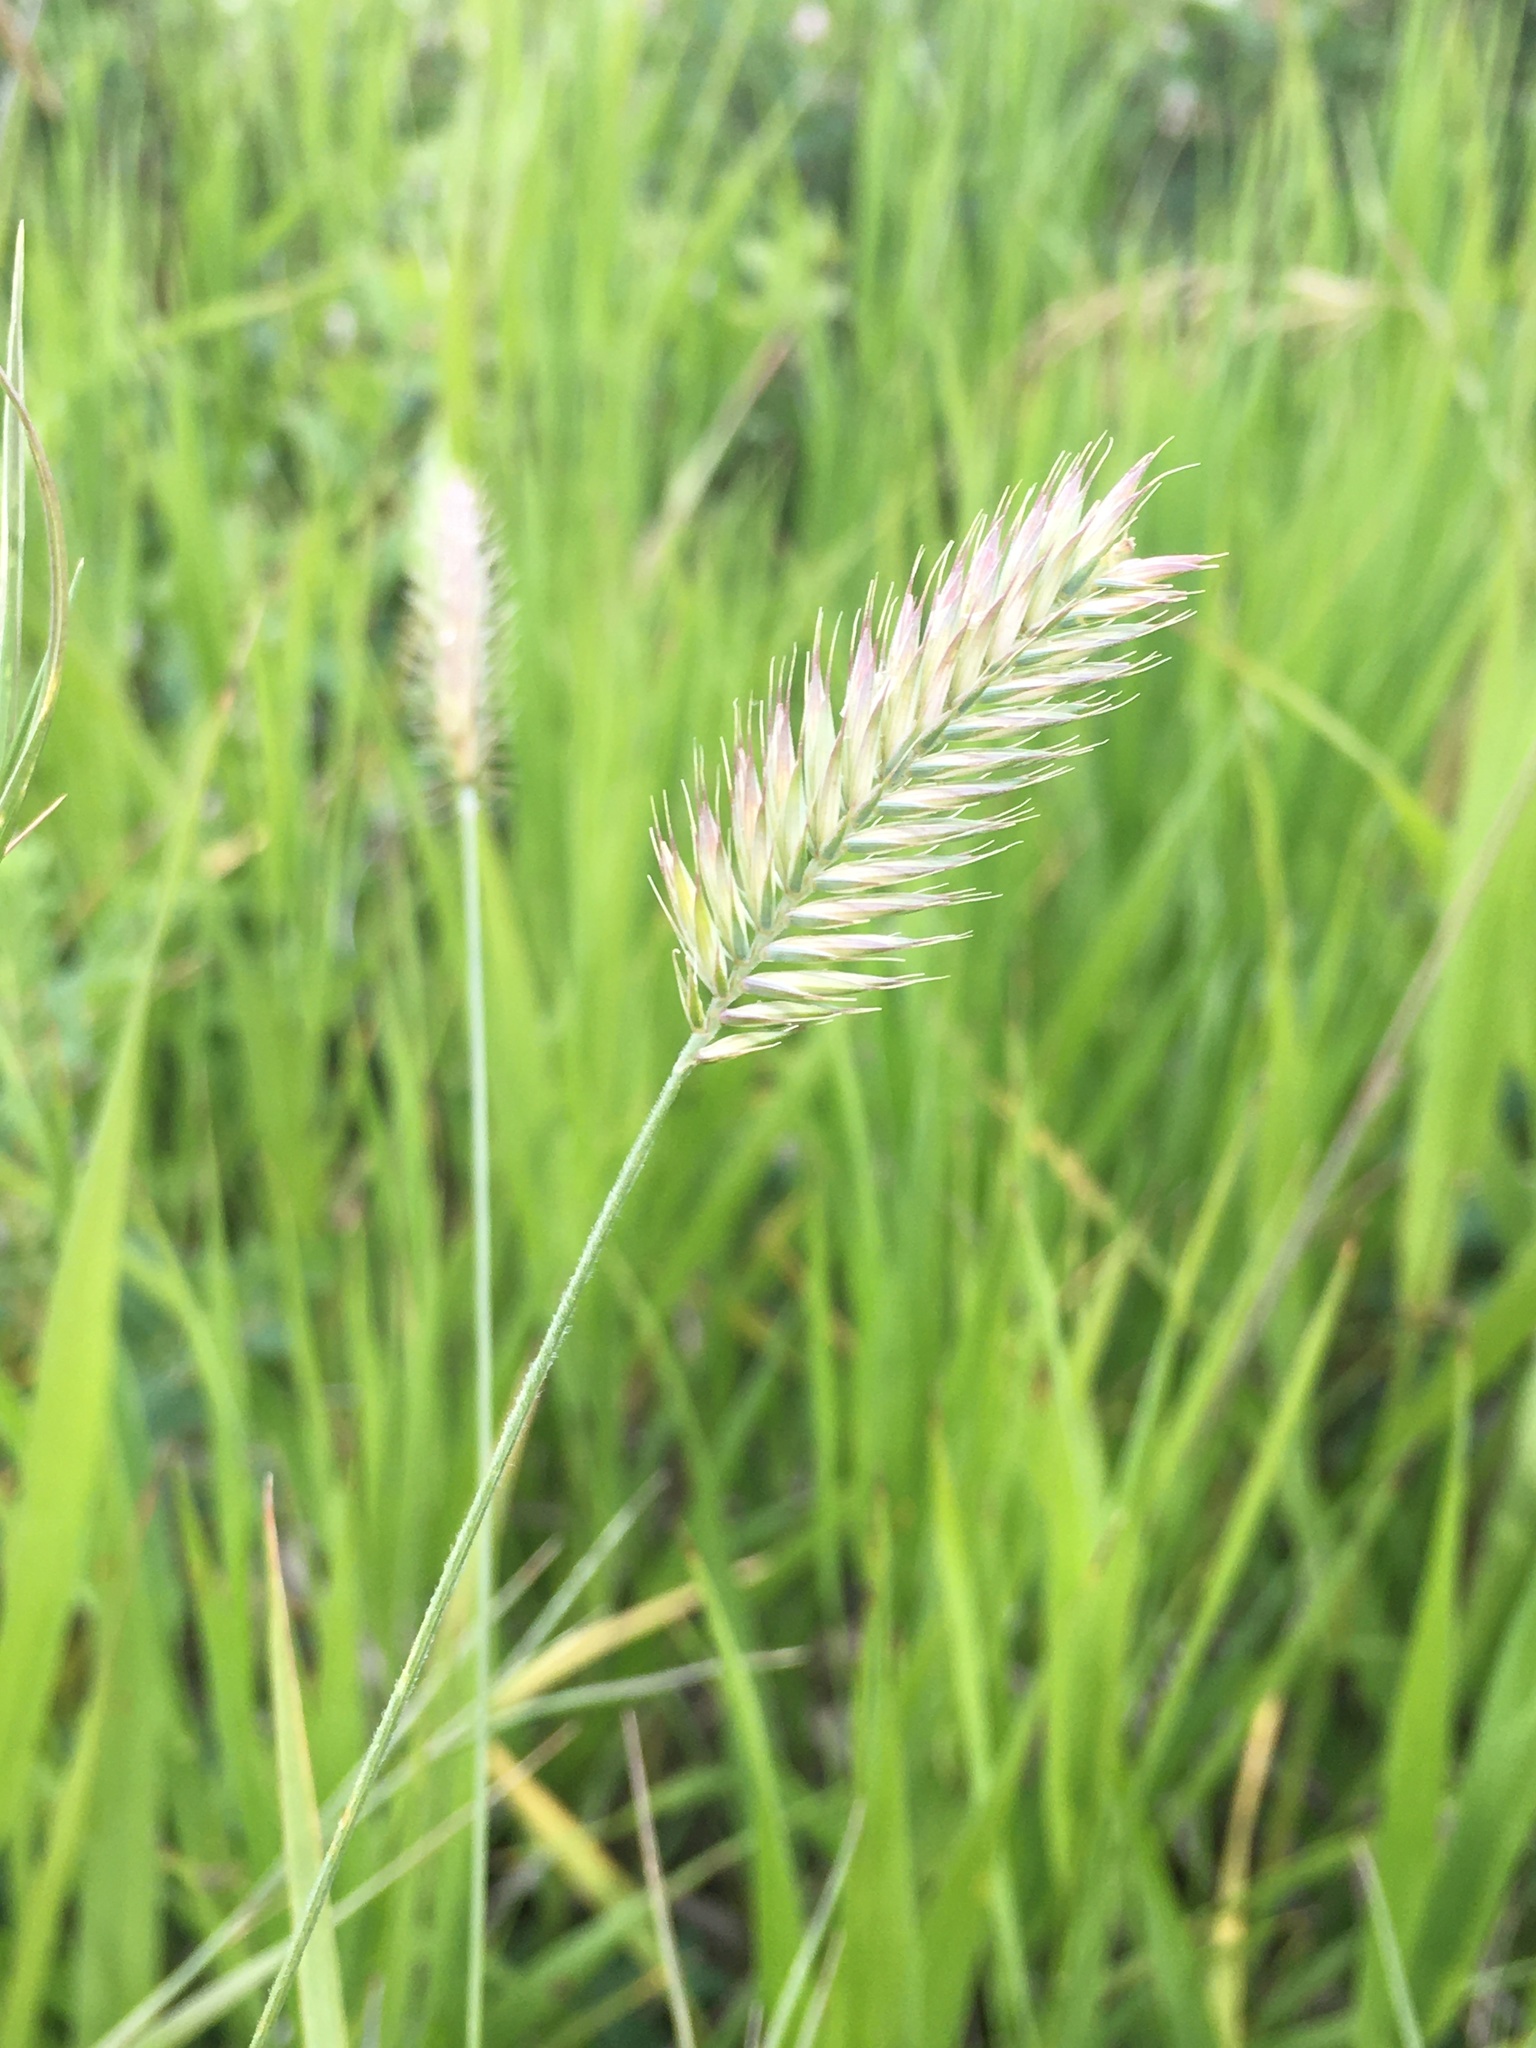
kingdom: Plantae
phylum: Tracheophyta
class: Liliopsida
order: Poales
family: Poaceae
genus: Agropyron
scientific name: Agropyron cristatum
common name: Crested wheatgrass
